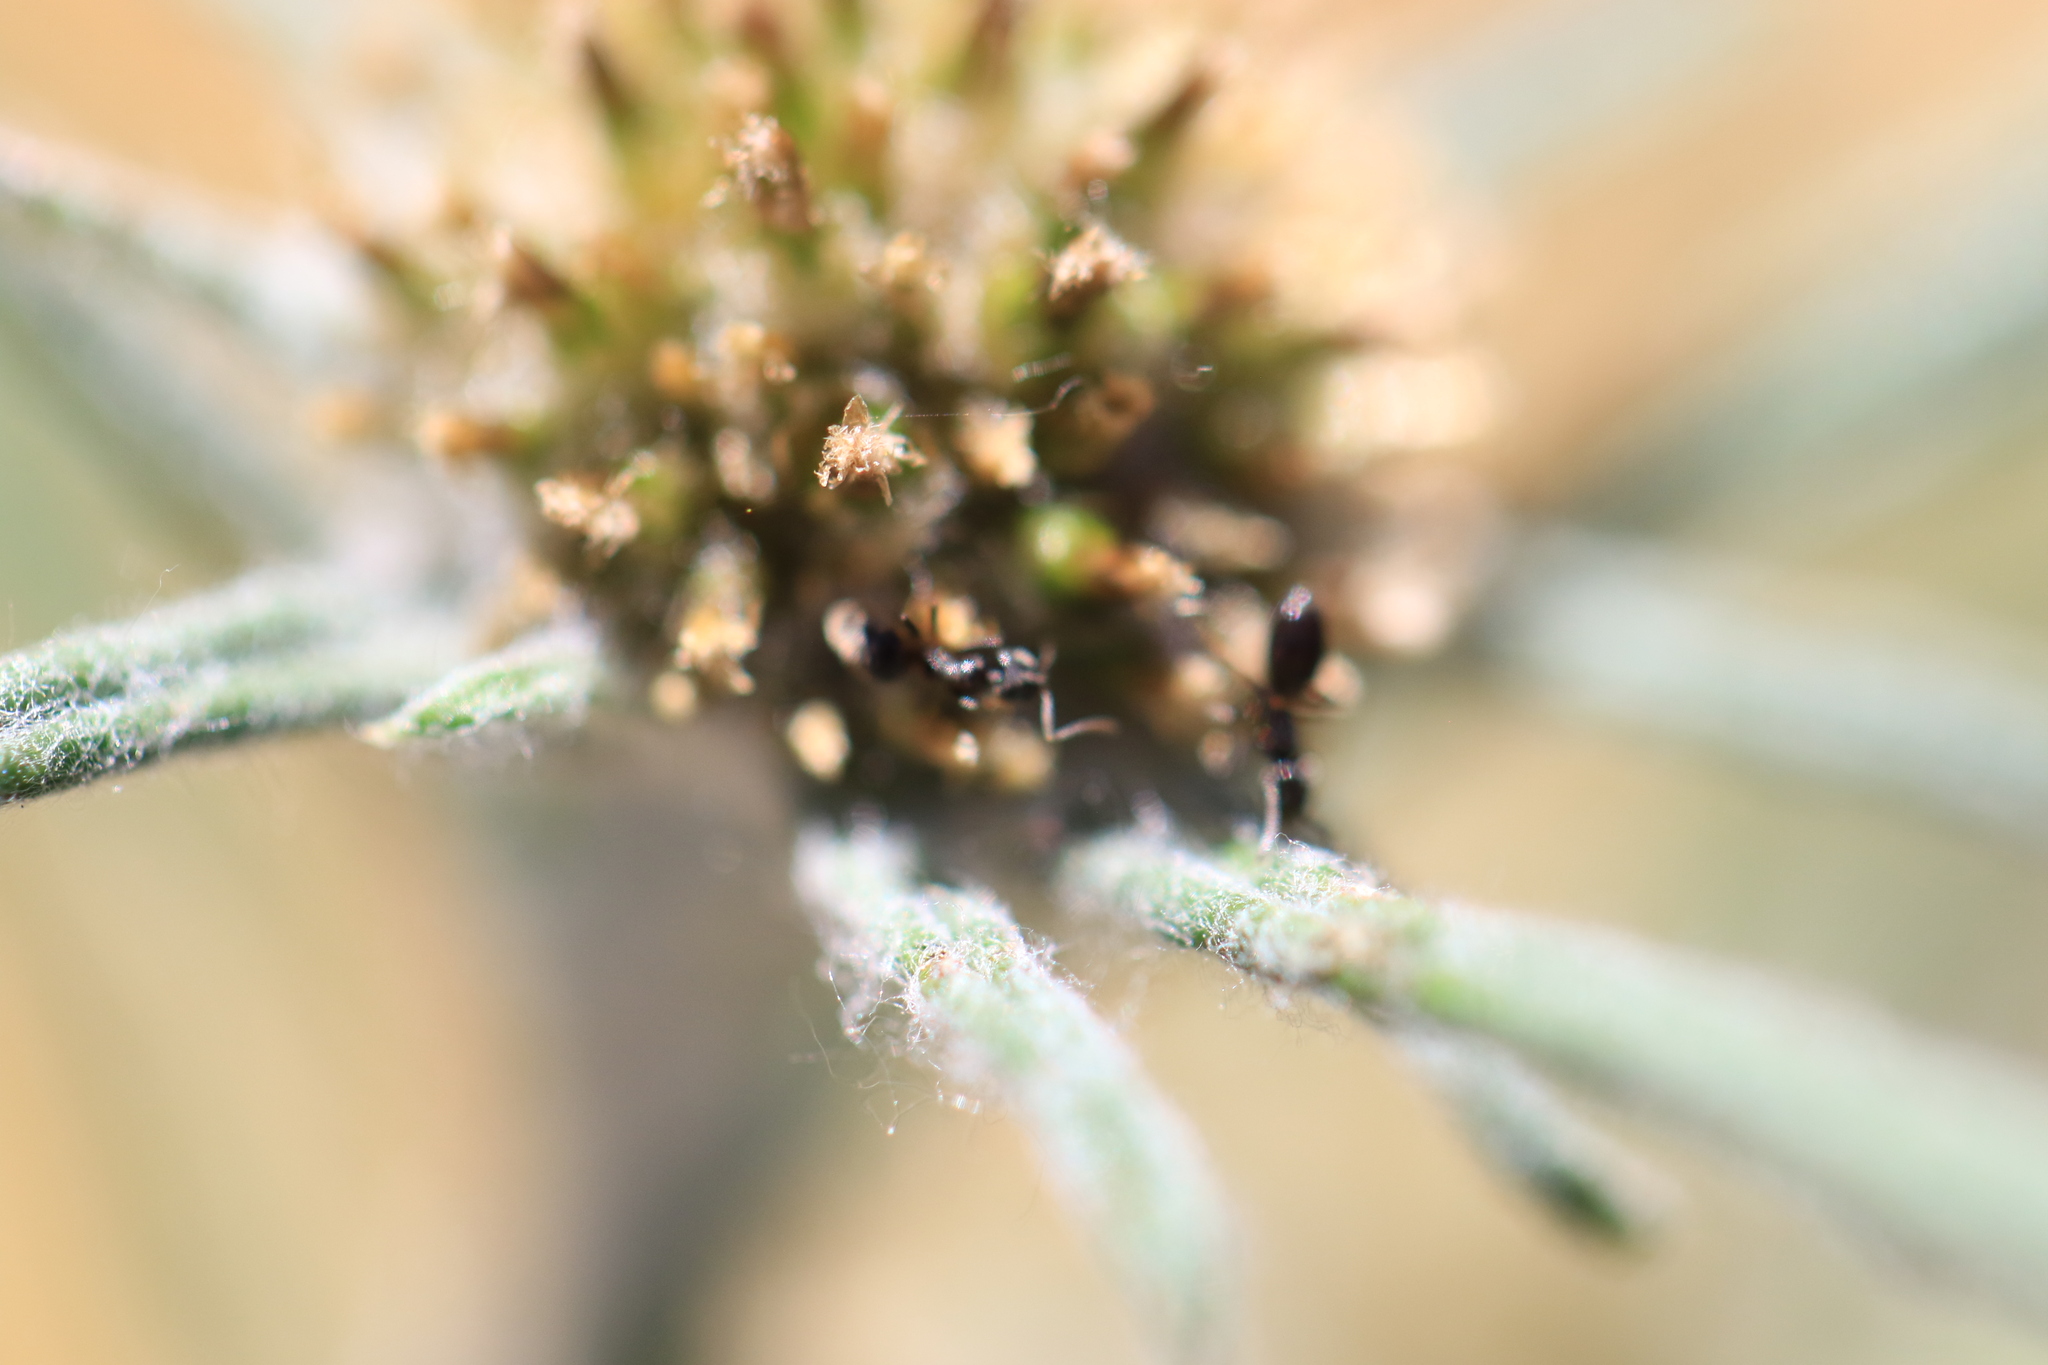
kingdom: Plantae
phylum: Tracheophyta
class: Magnoliopsida
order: Asterales
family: Asteraceae
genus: Euchiton
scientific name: Euchiton sphaericus
